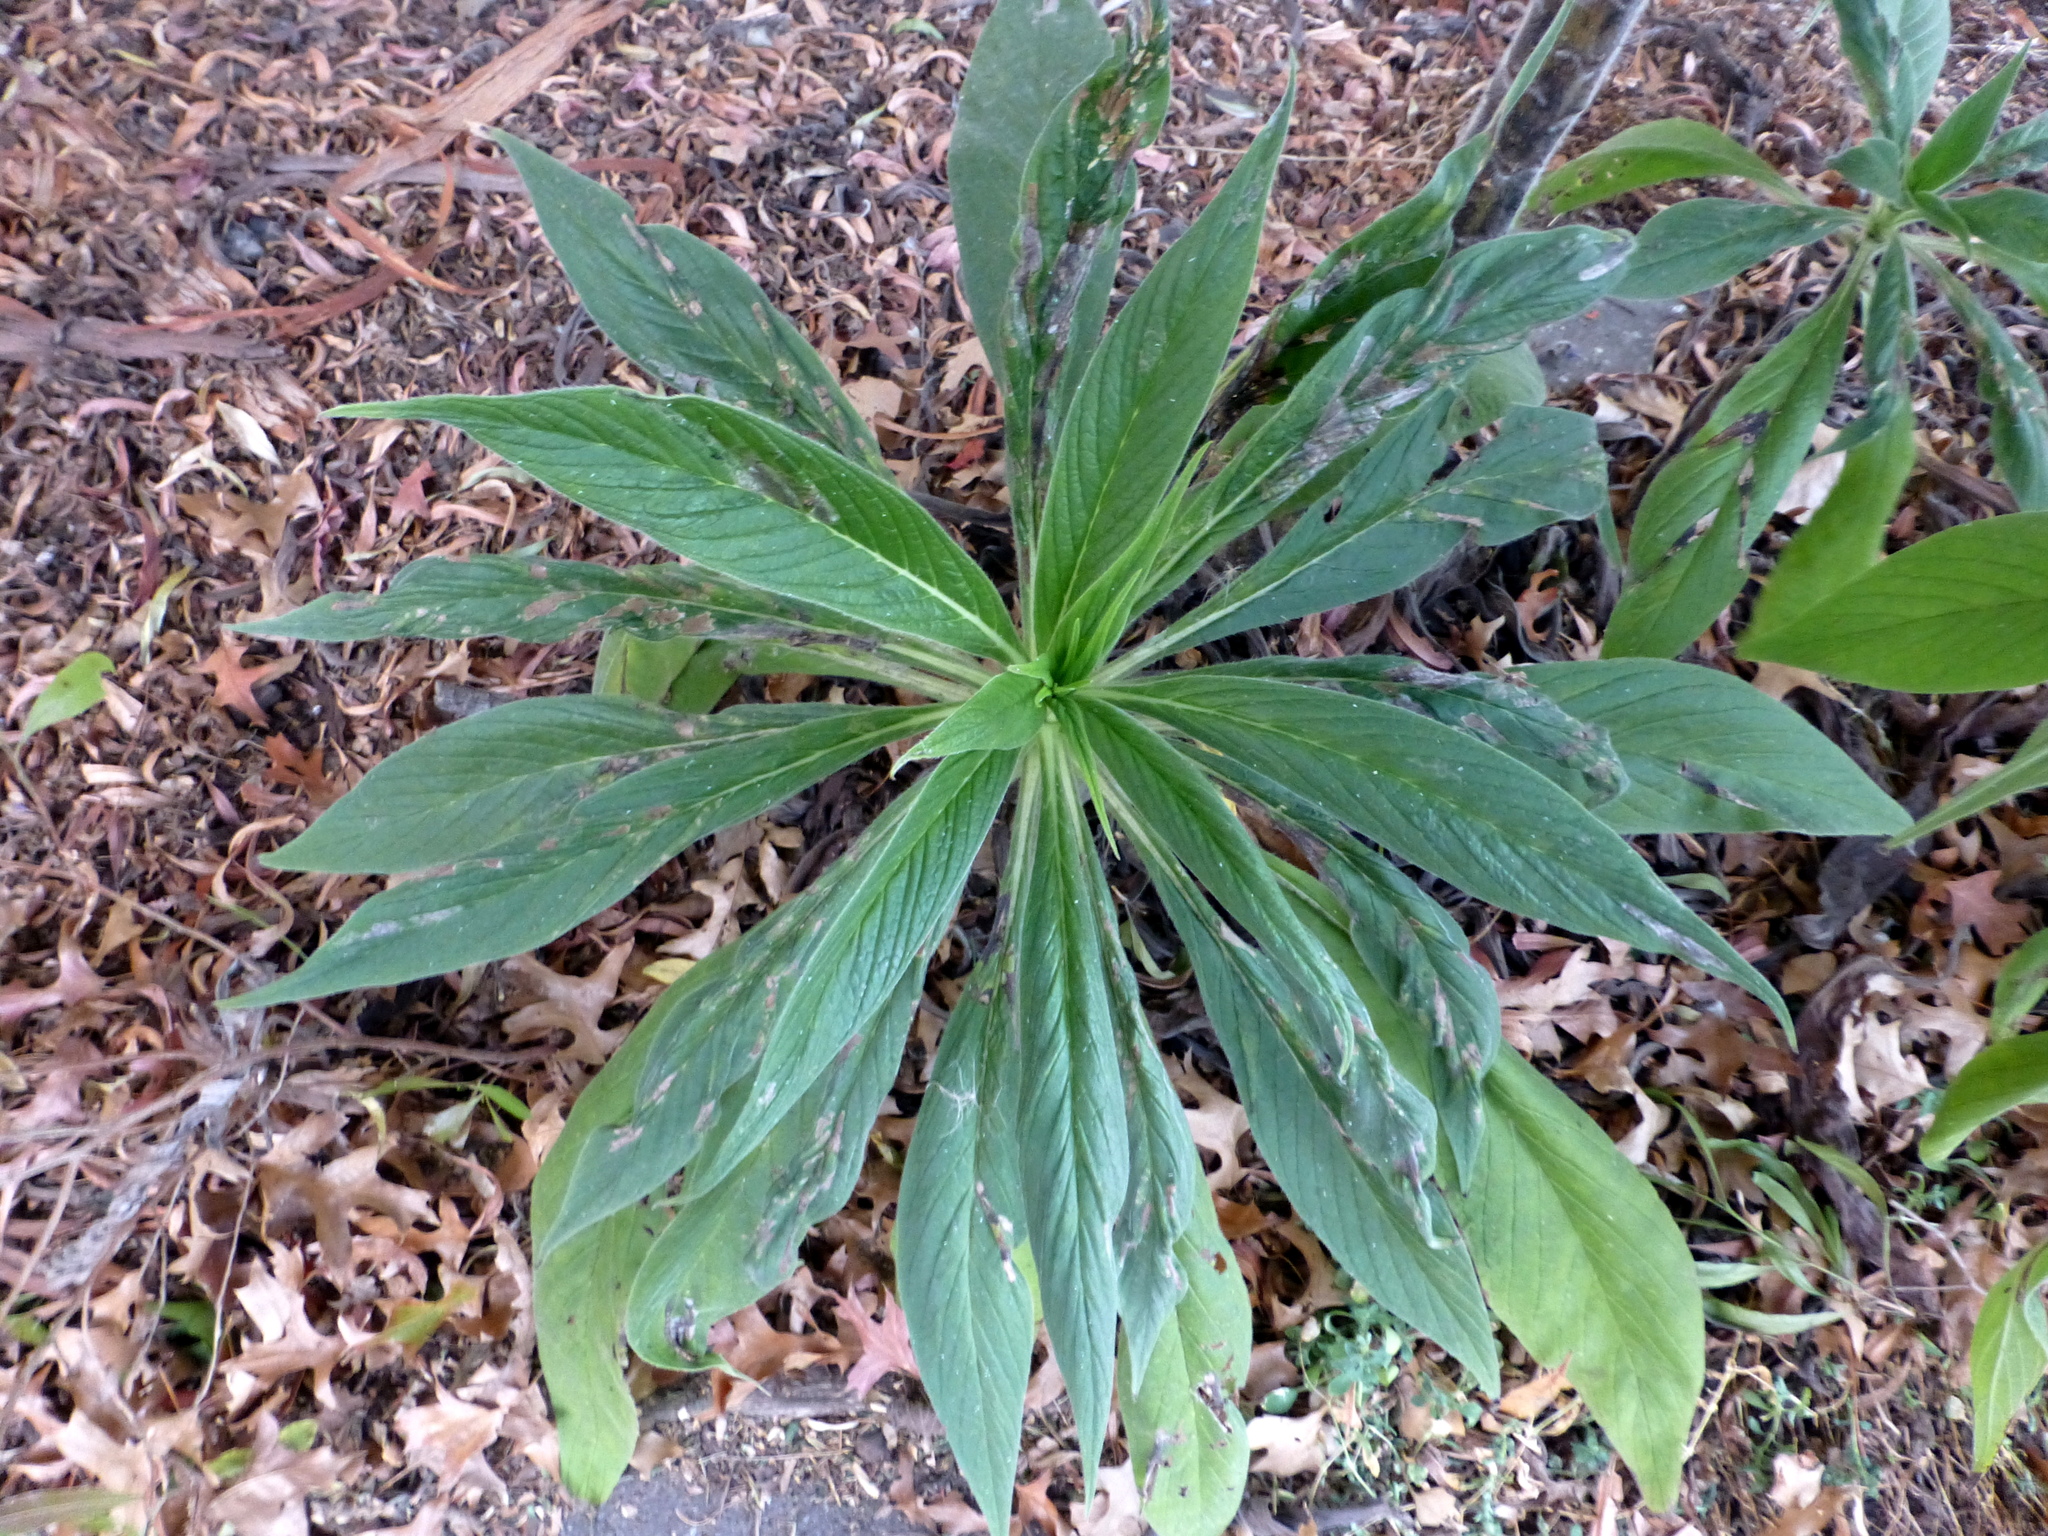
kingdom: Plantae
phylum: Tracheophyta
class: Magnoliopsida
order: Boraginales
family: Boraginaceae
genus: Echium
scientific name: Echium pininana
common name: Giant viper's-bugloss
